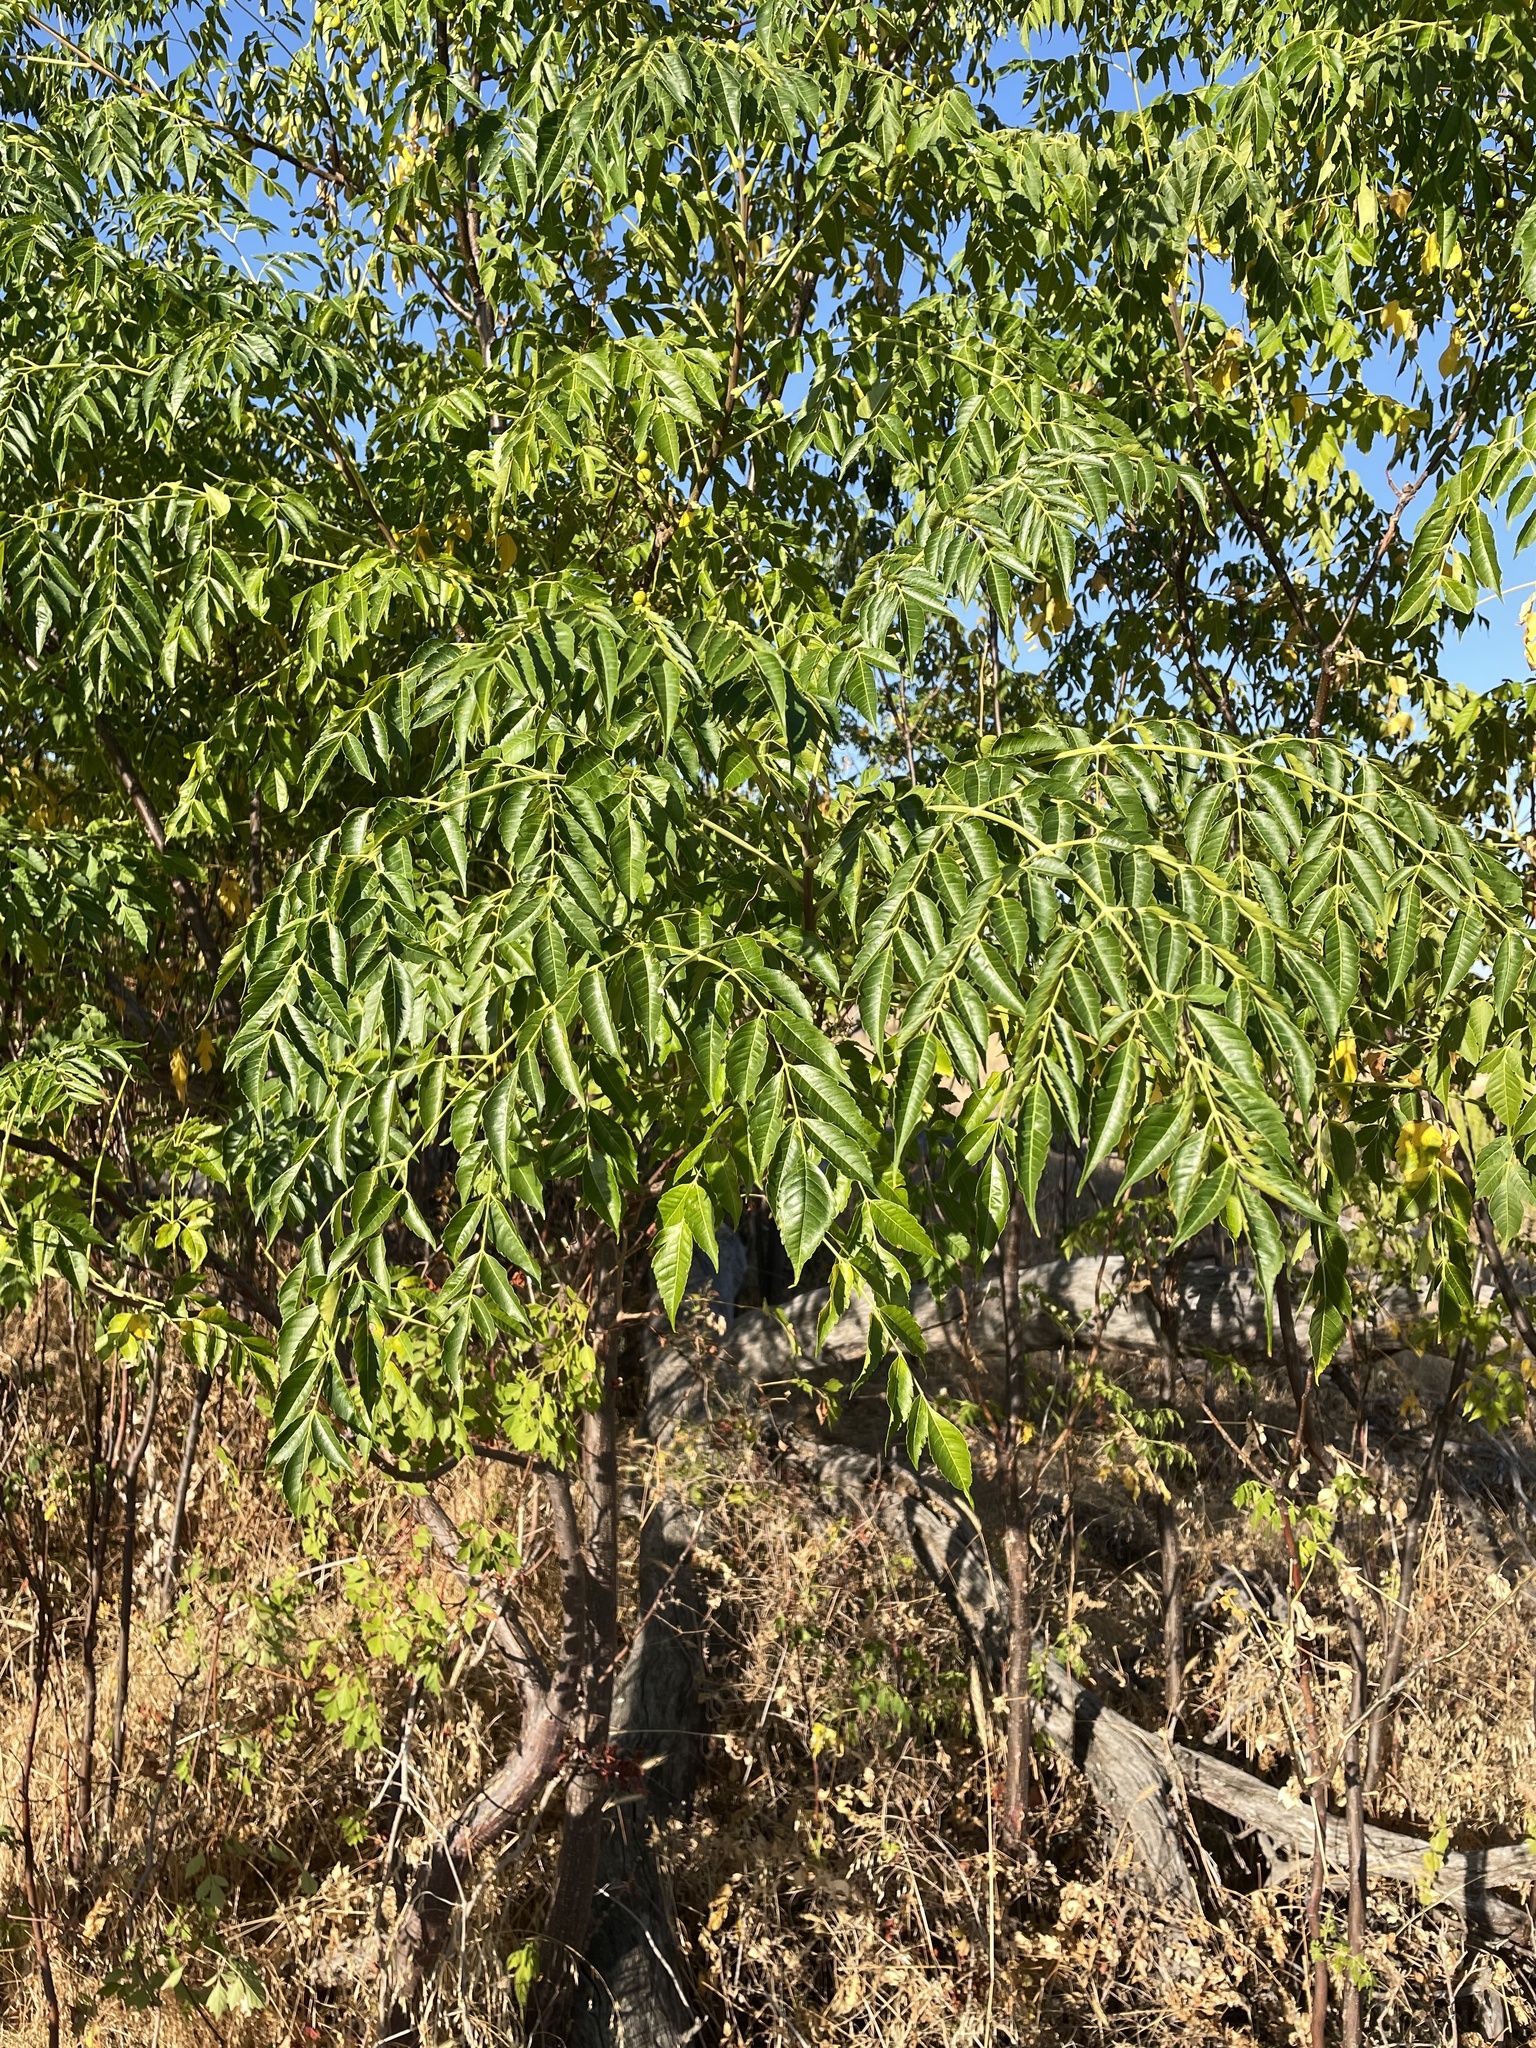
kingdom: Plantae
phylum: Tracheophyta
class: Magnoliopsida
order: Sapindales
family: Meliaceae
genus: Melia
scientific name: Melia azedarach
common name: Chinaberrytree
